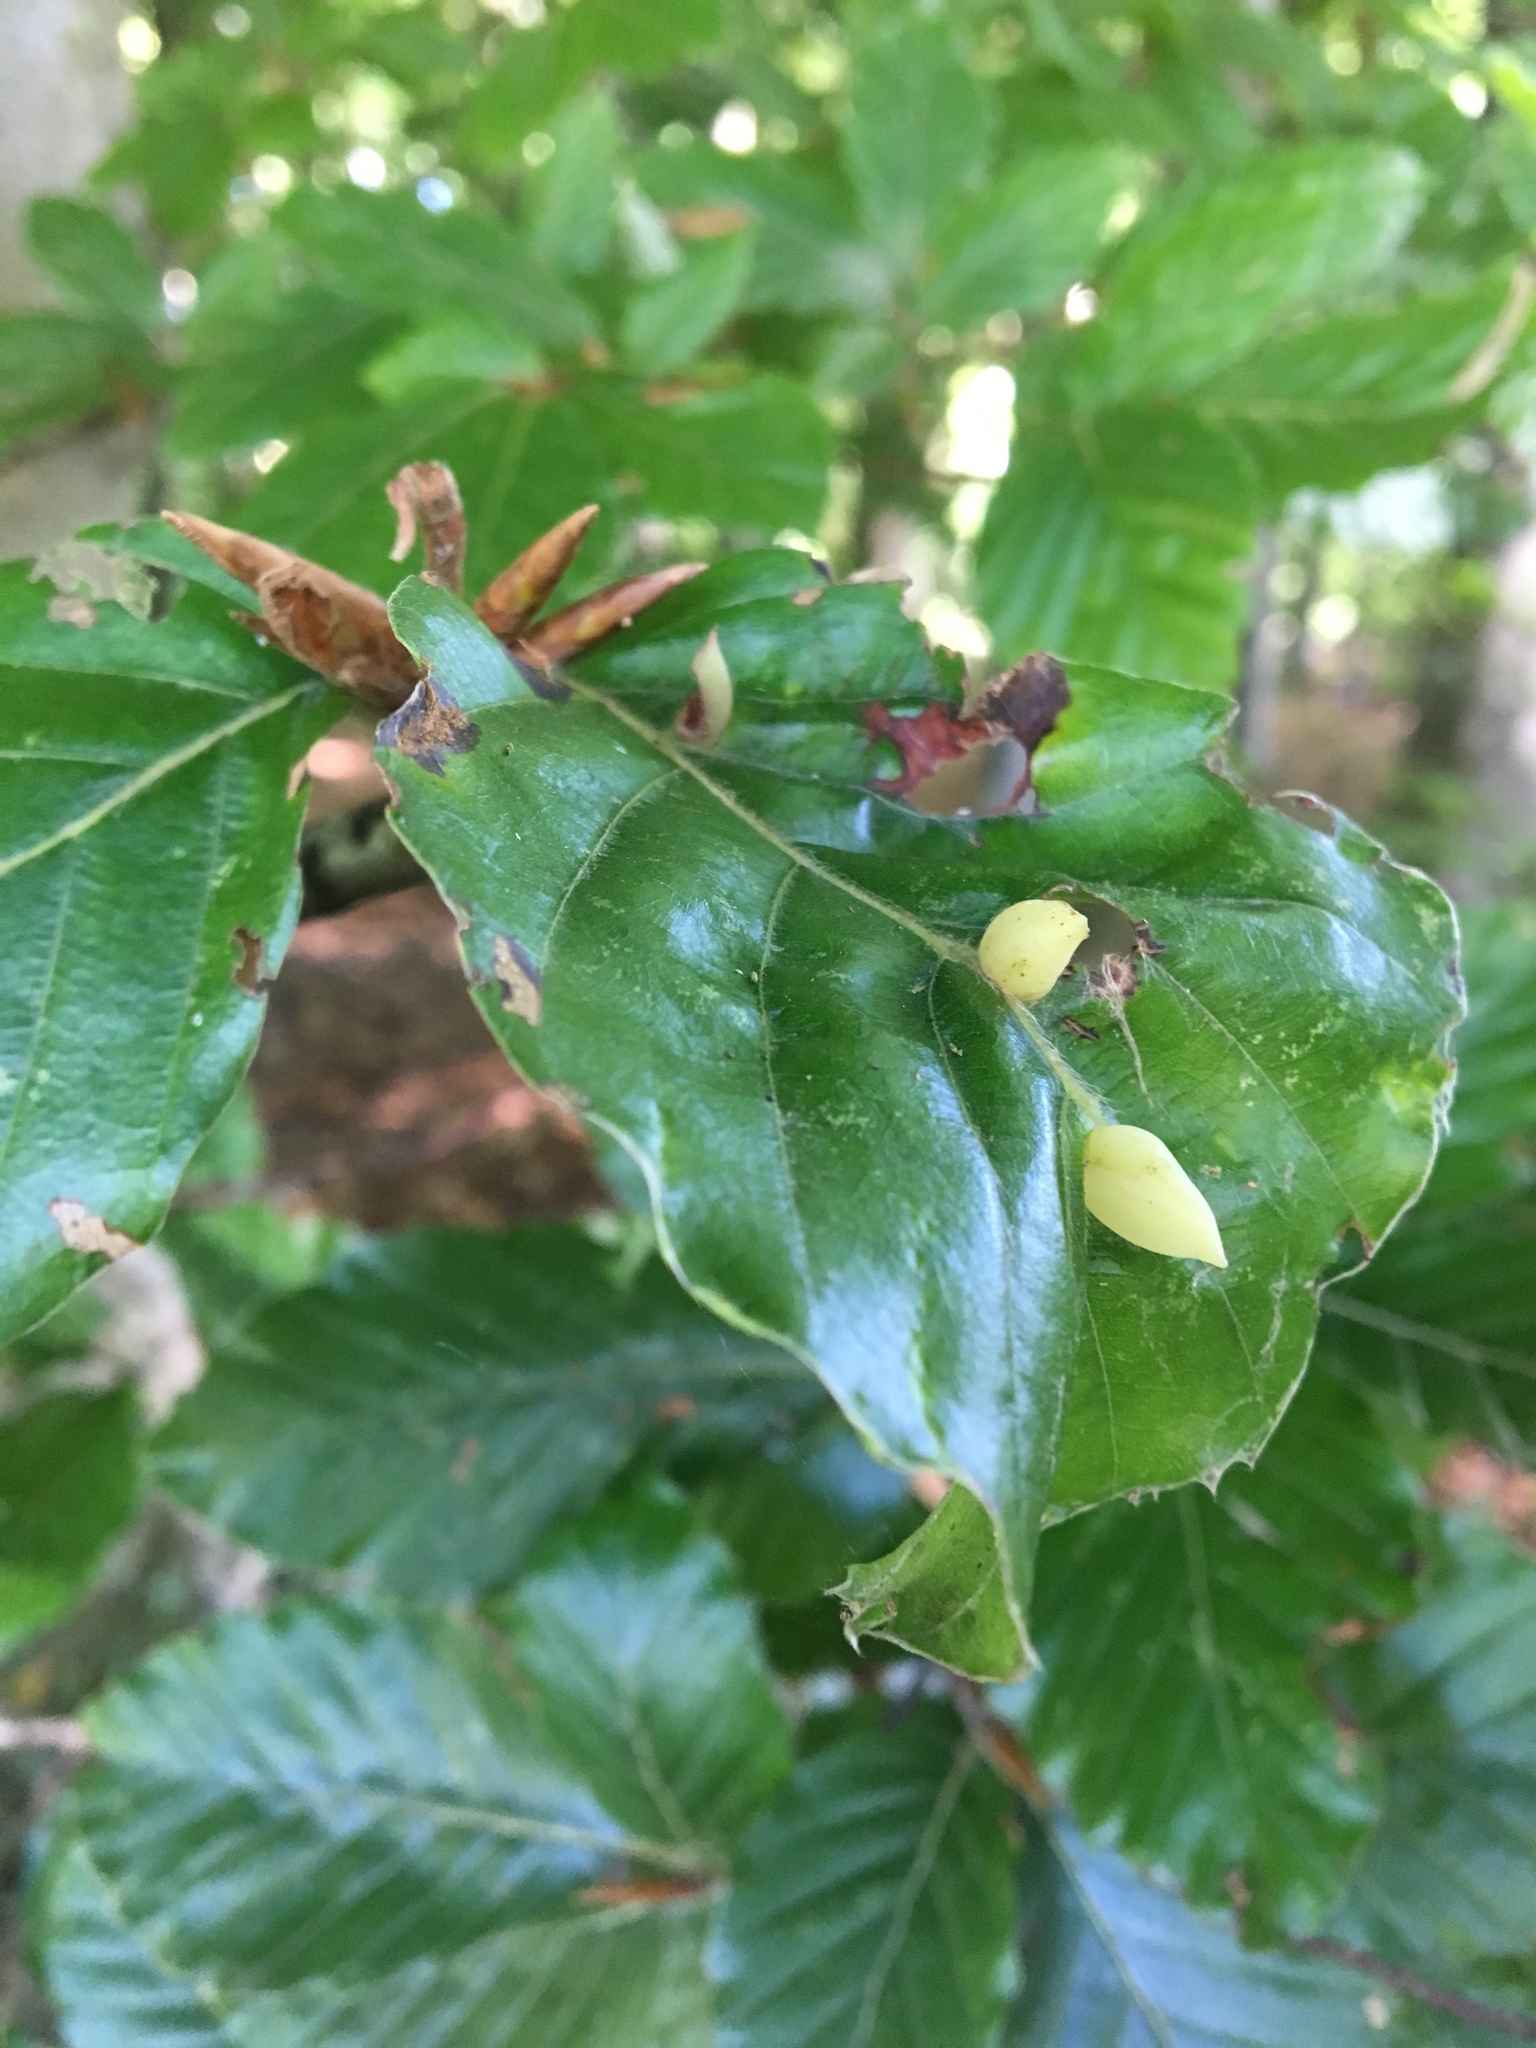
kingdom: Animalia
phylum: Arthropoda
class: Insecta
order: Diptera
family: Cecidomyiidae
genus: Mikiola
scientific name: Mikiola fagi
